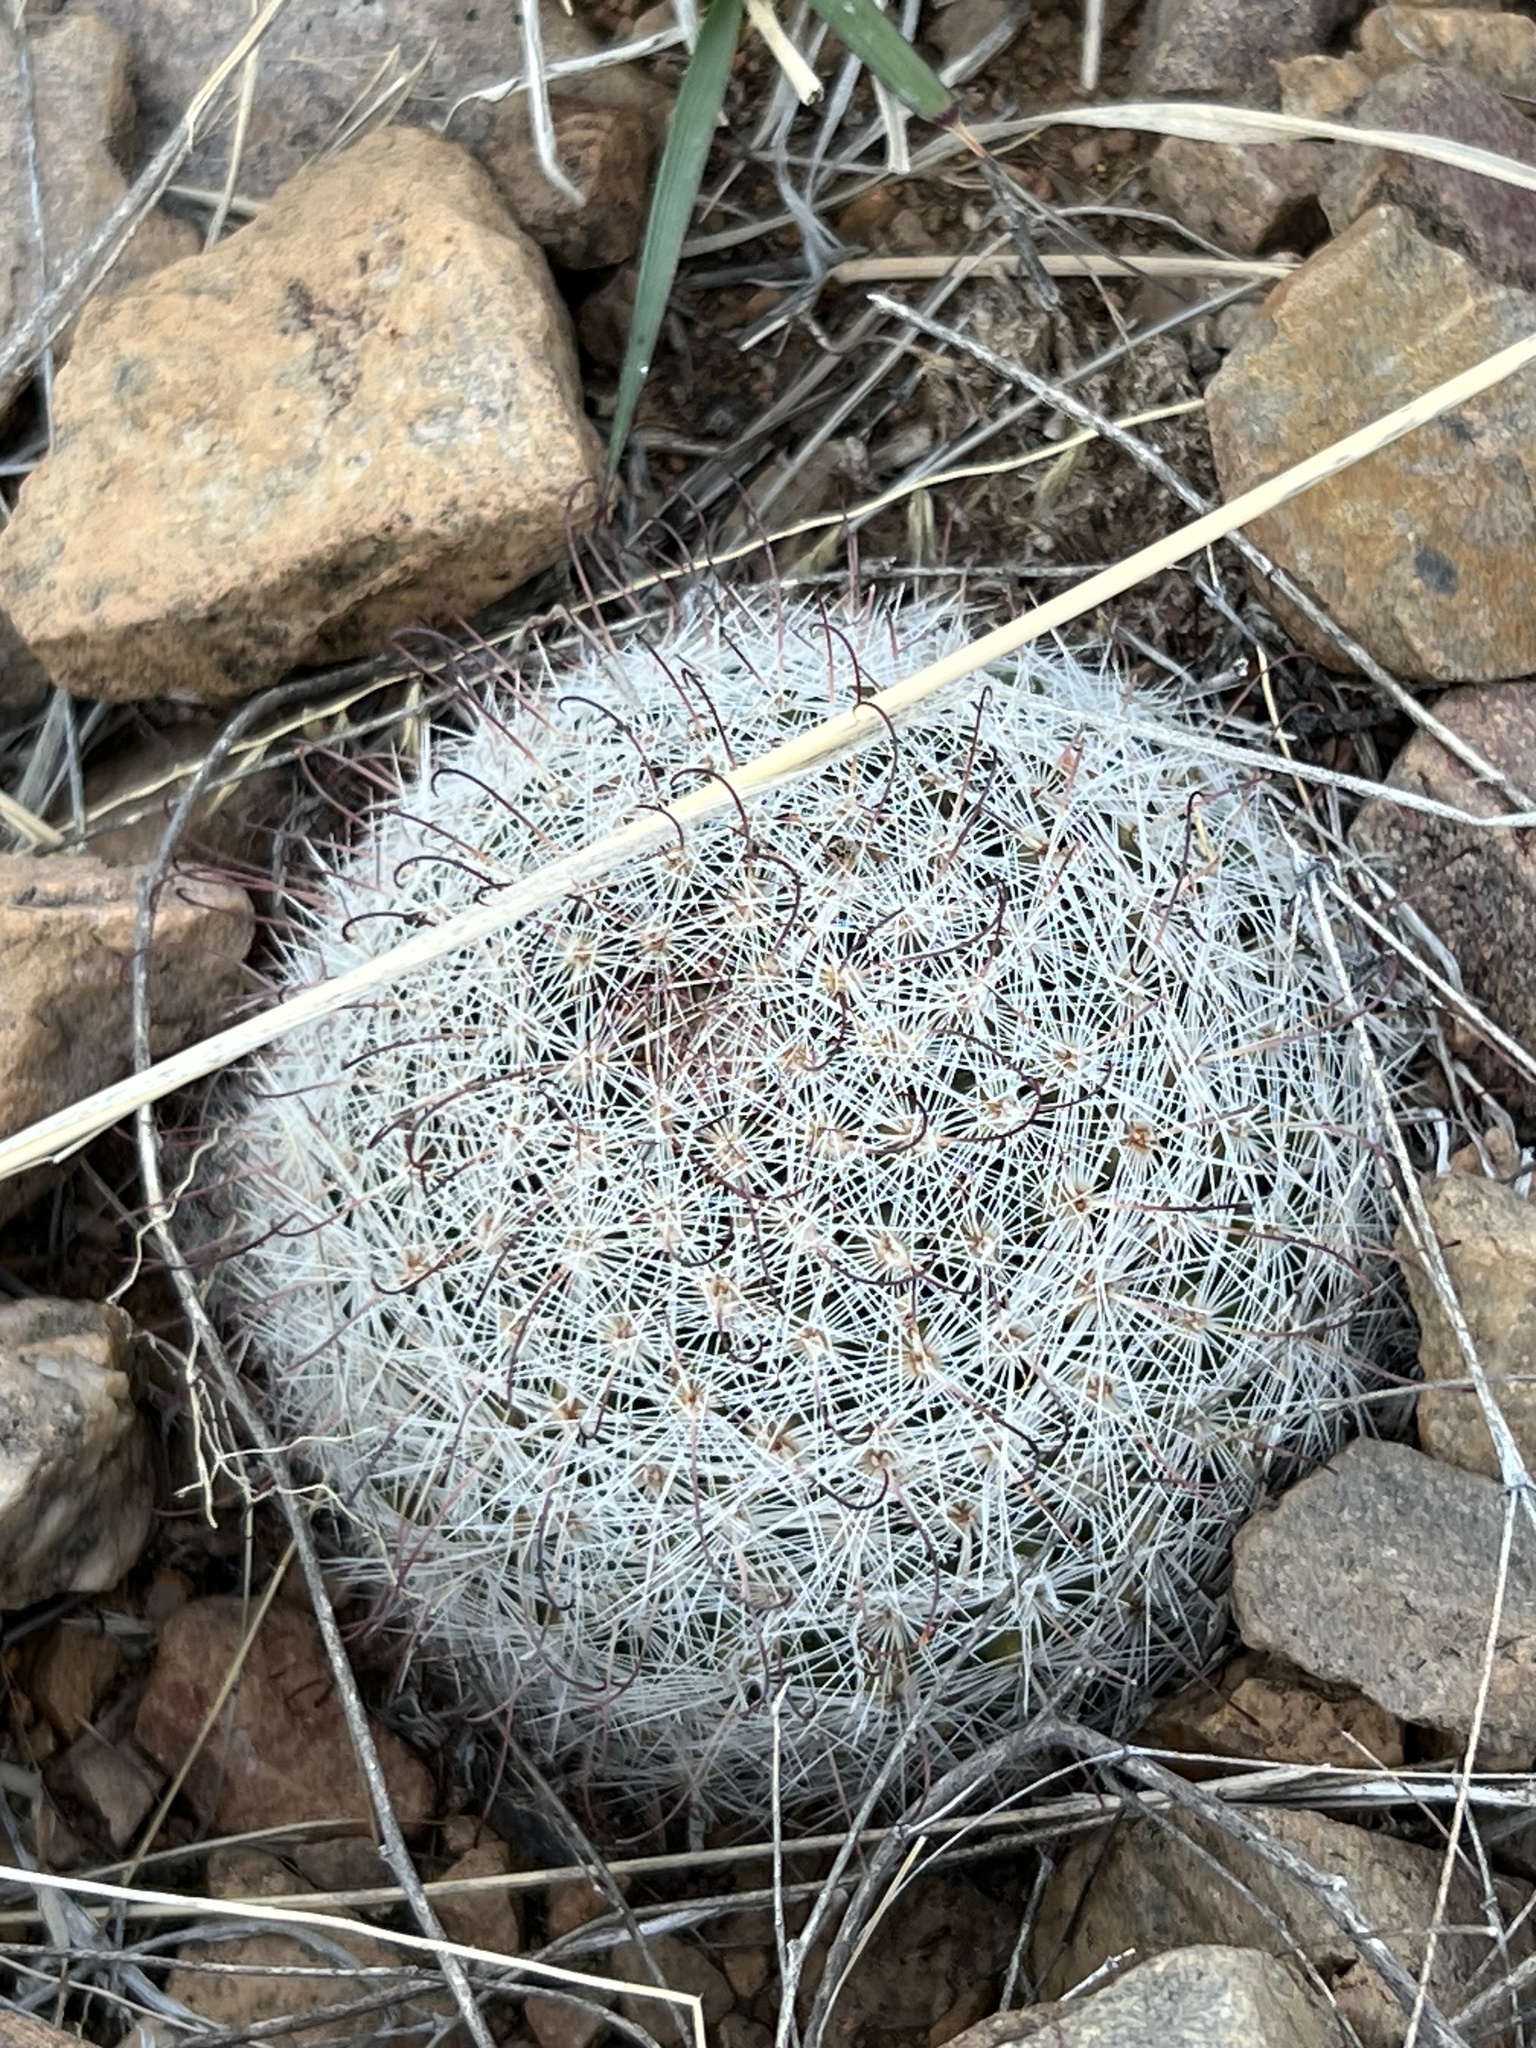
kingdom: Plantae
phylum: Tracheophyta
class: Magnoliopsida
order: Caryophyllales
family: Cactaceae
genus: Cochemiea
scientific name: Cochemiea grahamii
